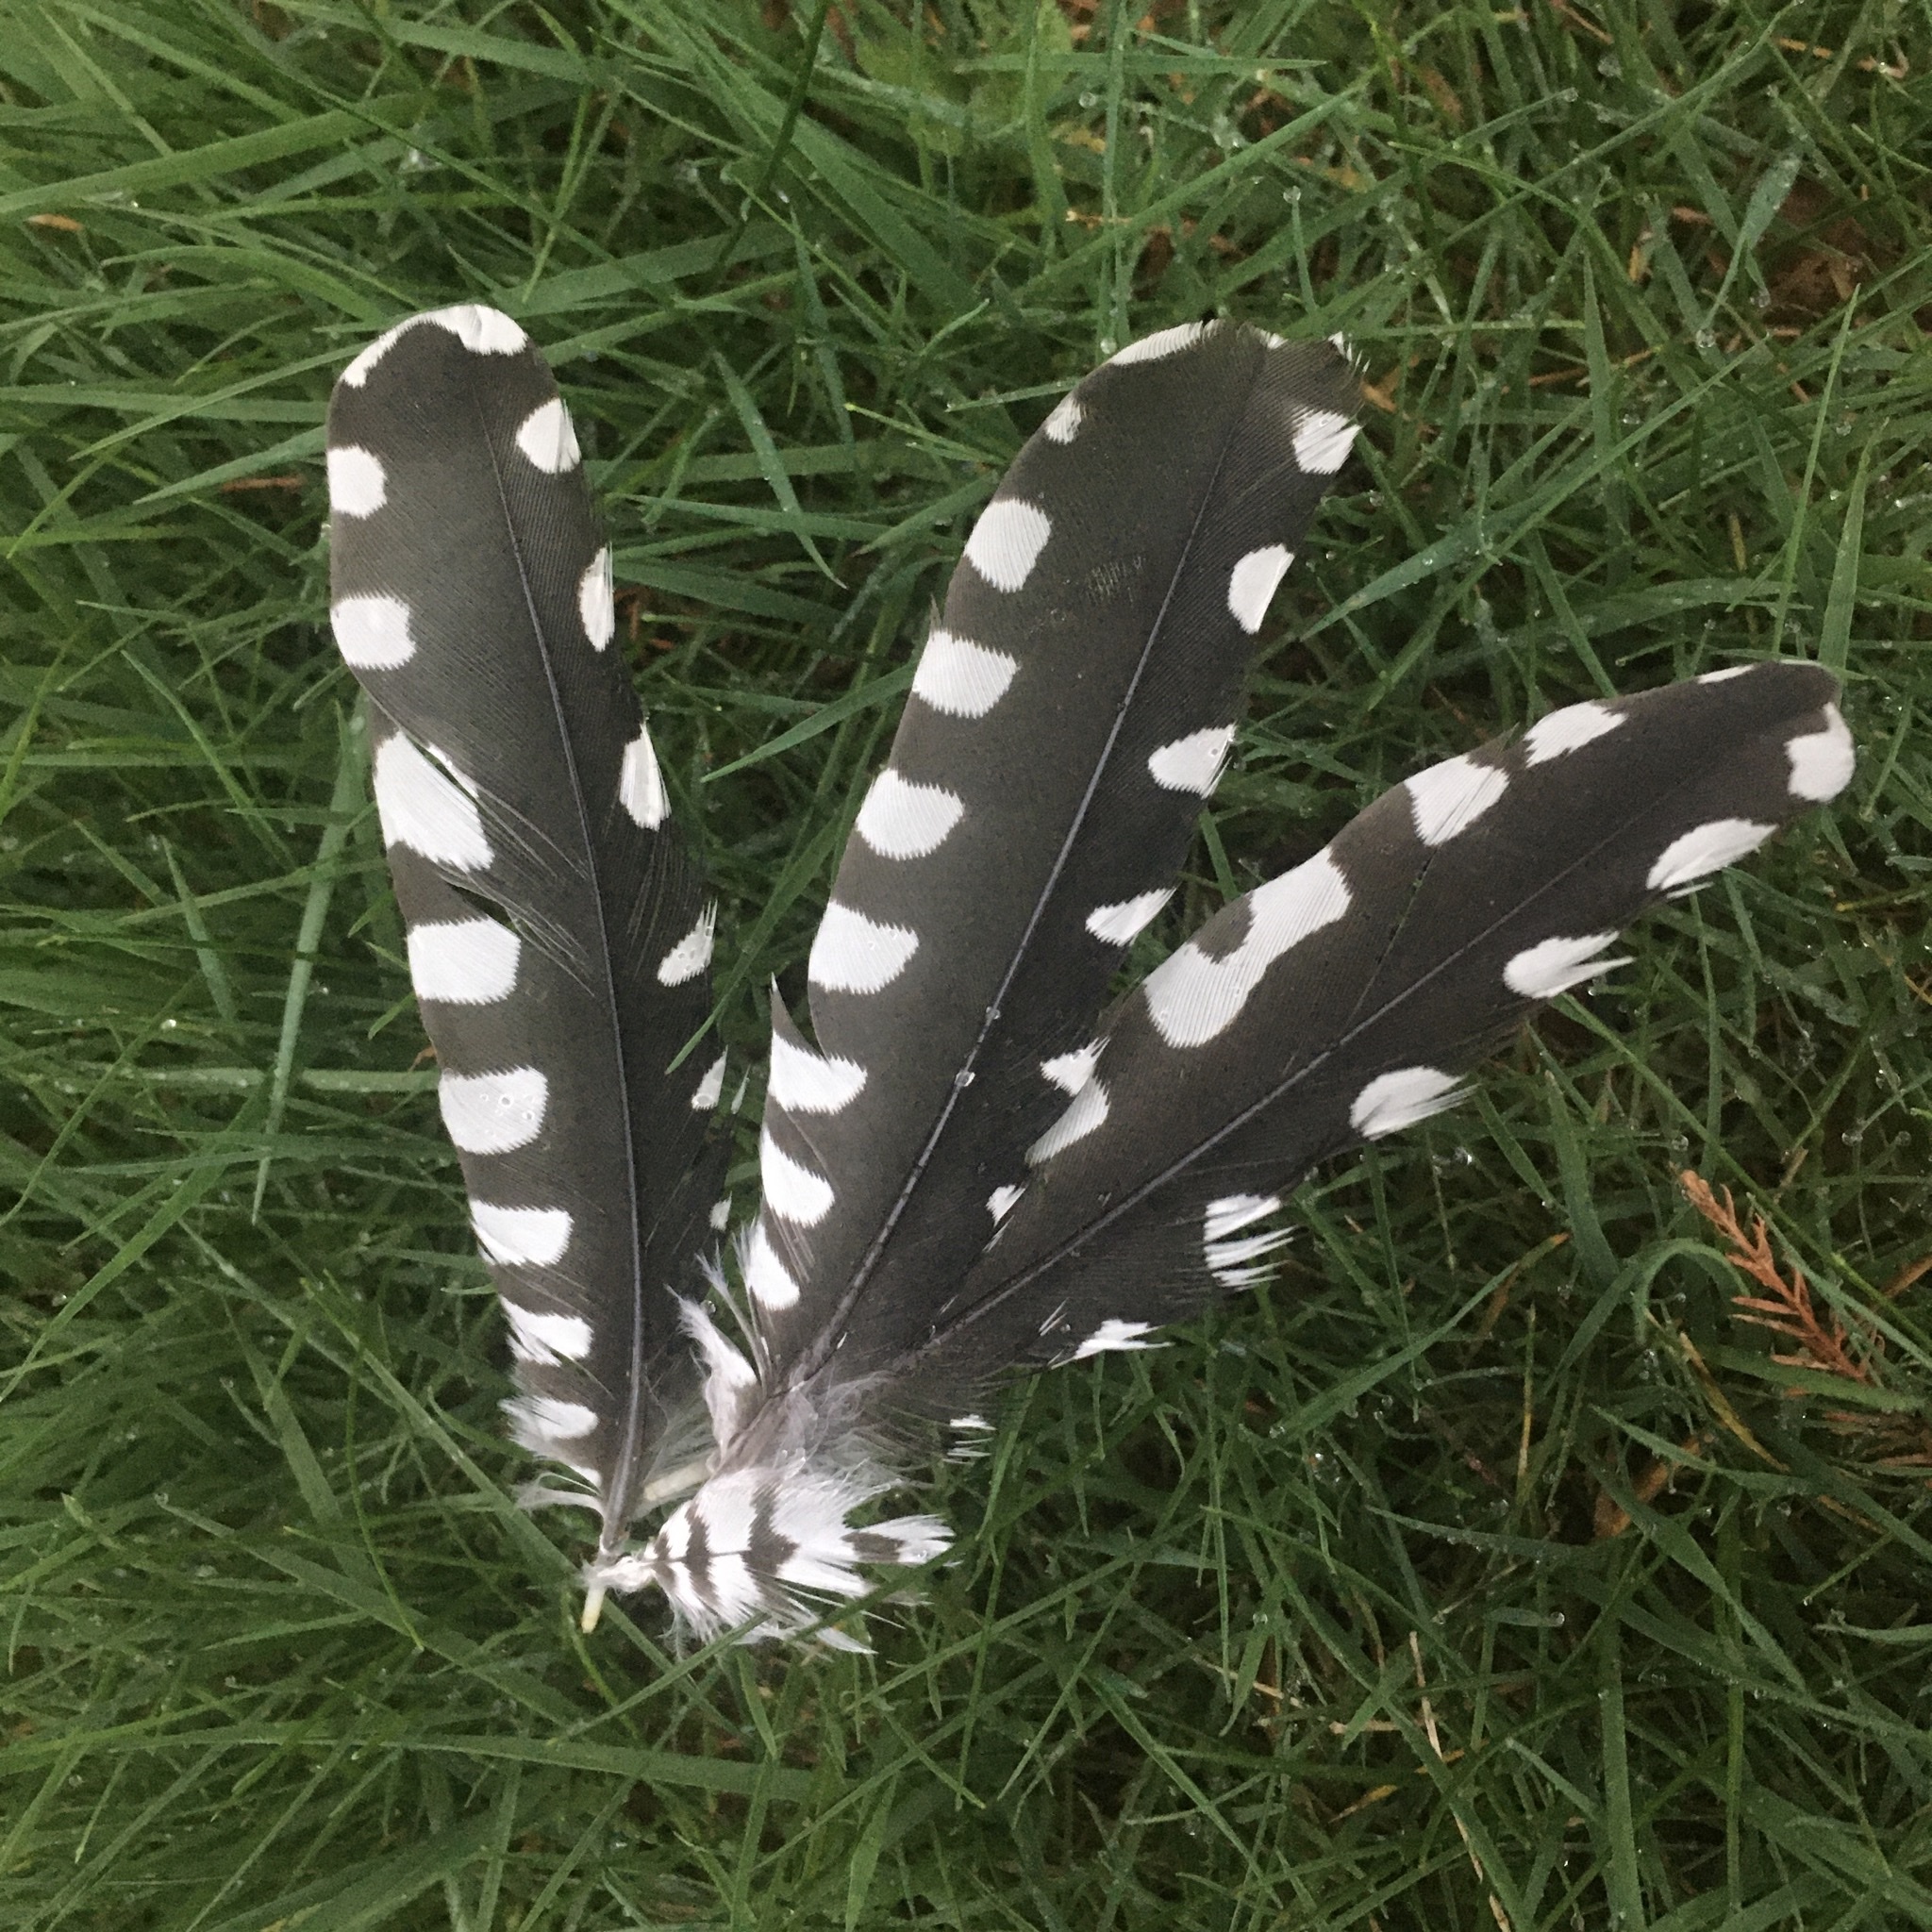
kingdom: Animalia
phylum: Chordata
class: Aves
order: Piciformes
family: Picidae
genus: Melanerpes
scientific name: Melanerpes carolinus
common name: Red-bellied woodpecker
